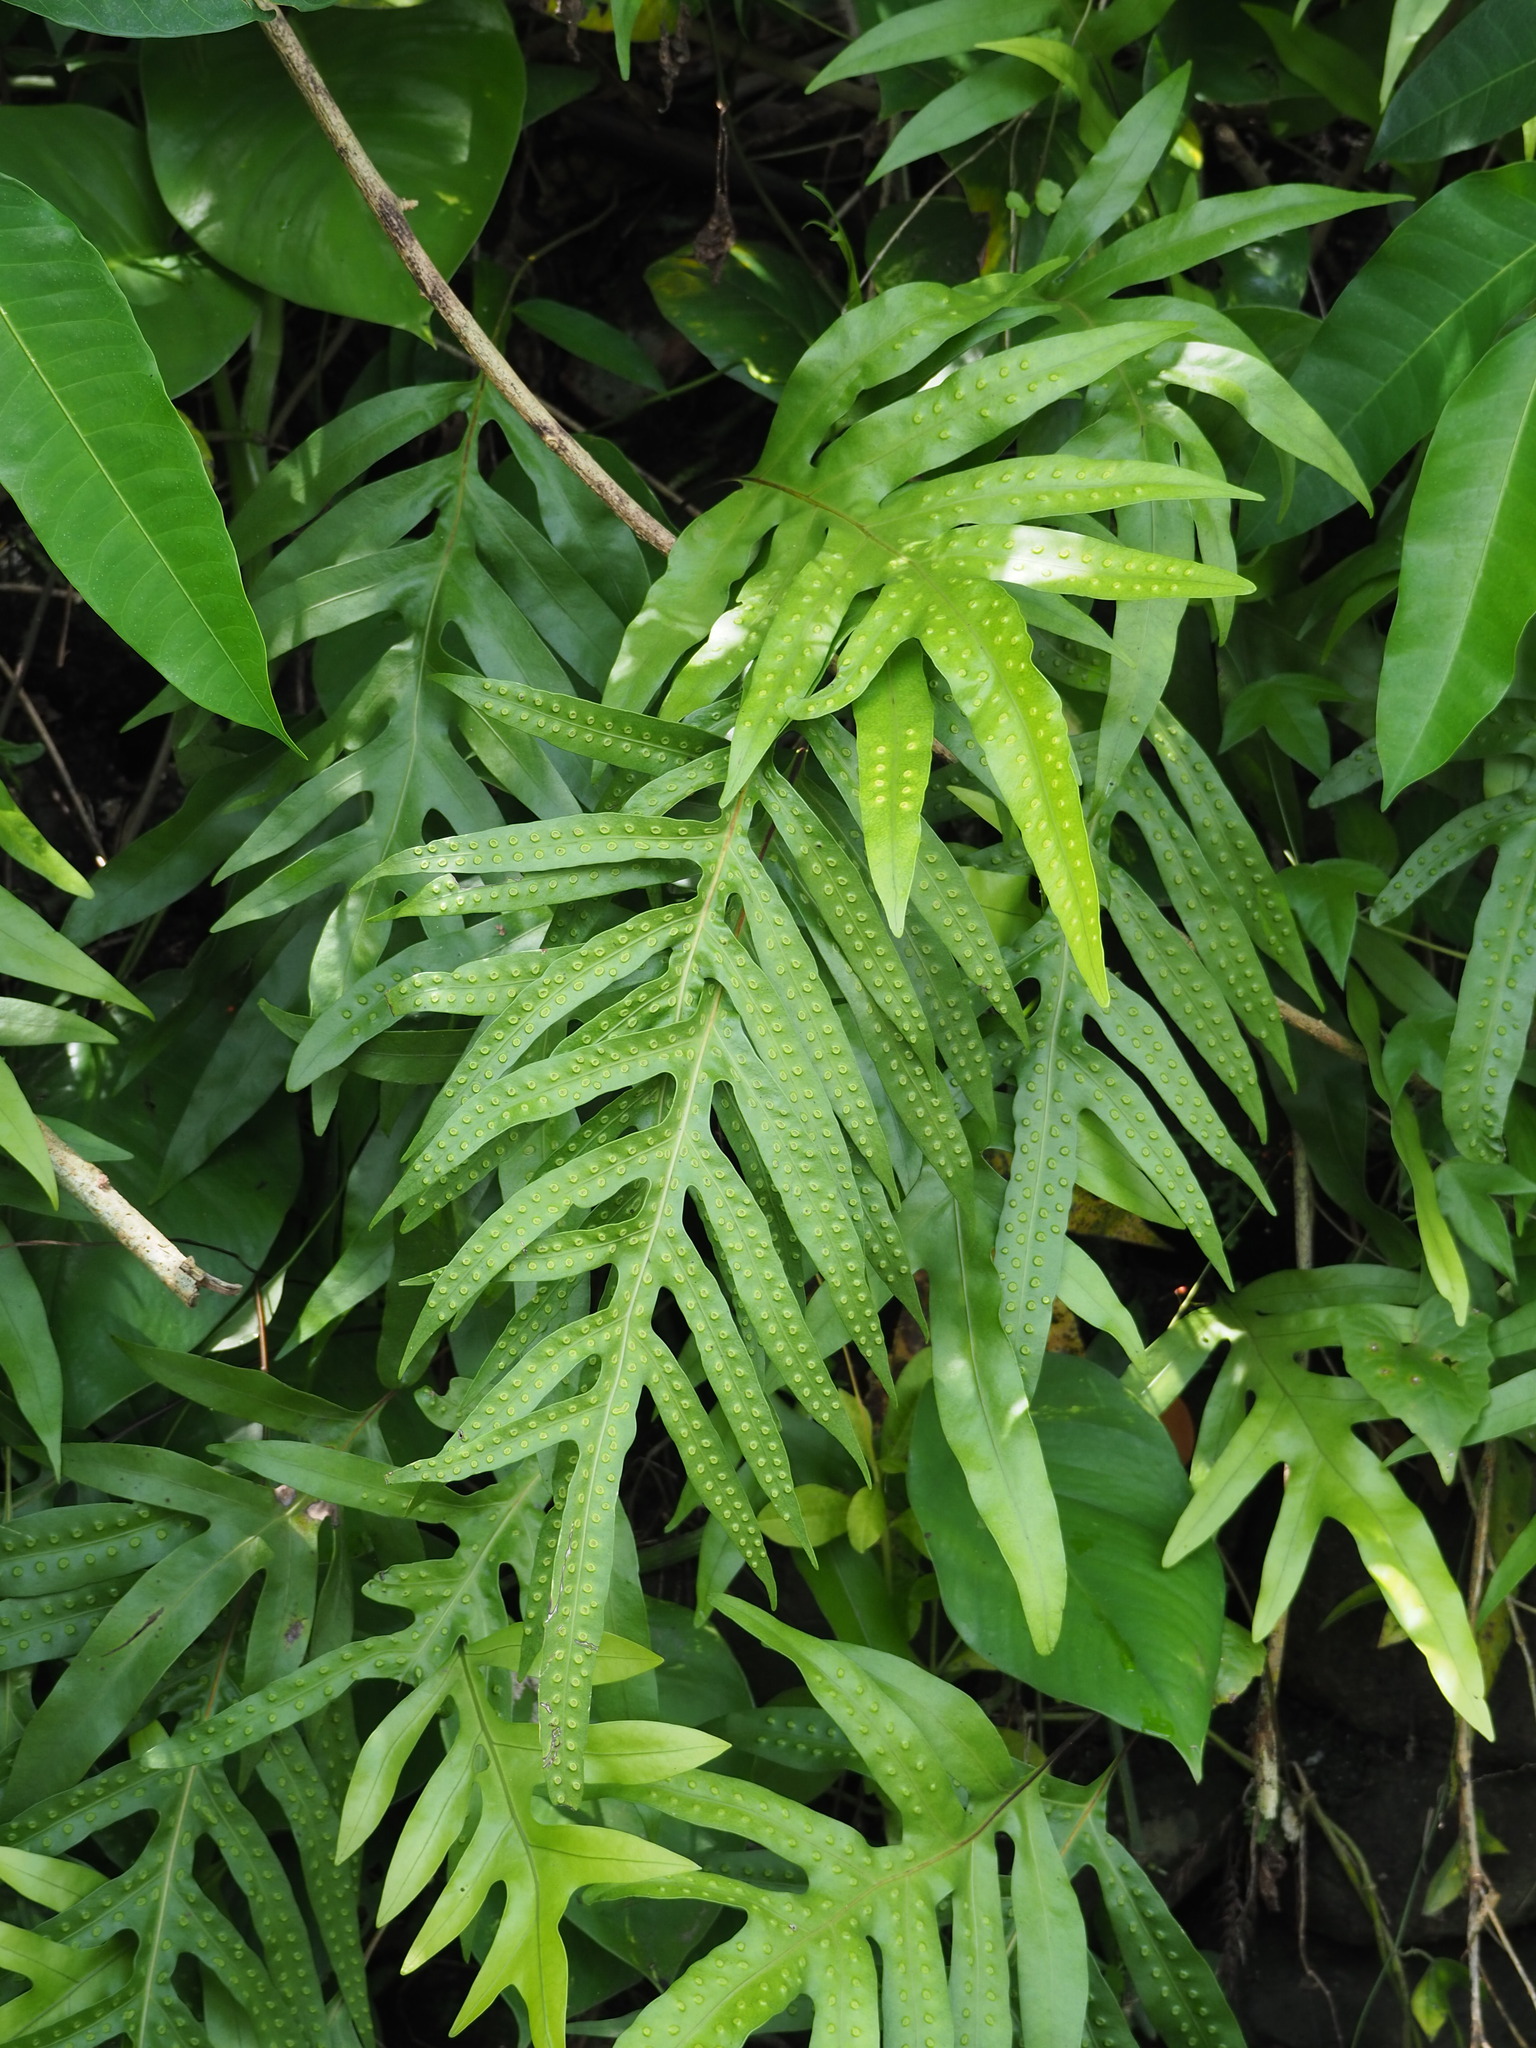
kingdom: Plantae
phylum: Tracheophyta
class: Polypodiopsida
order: Polypodiales
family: Polypodiaceae
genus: Microsorum
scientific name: Microsorum scolopendria
